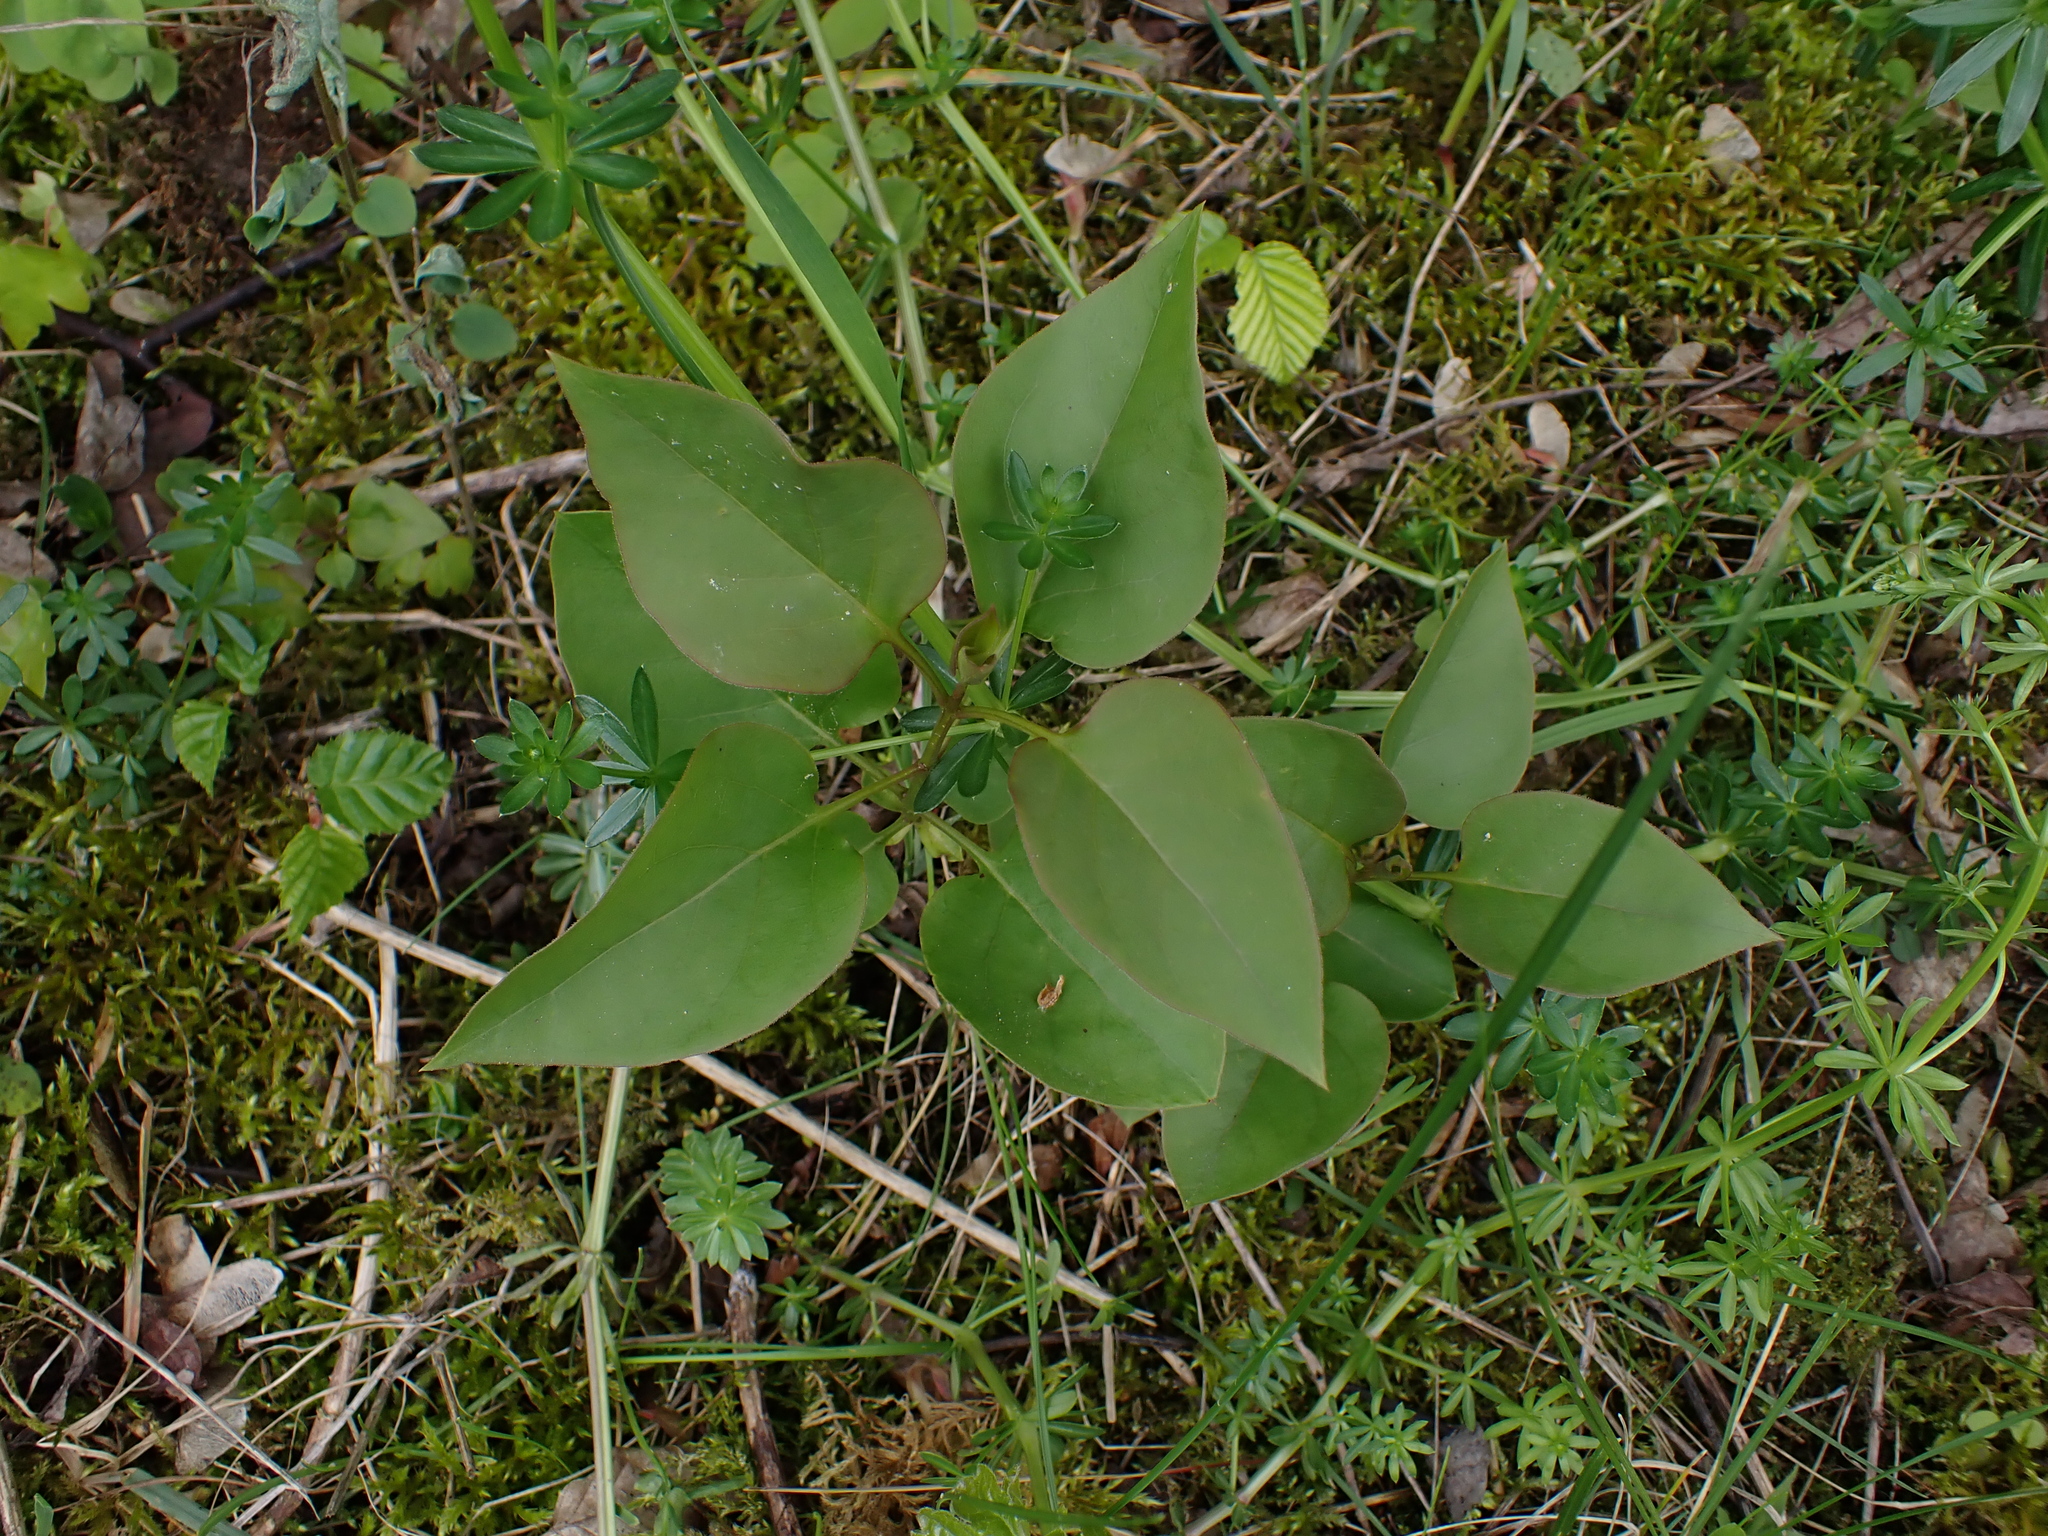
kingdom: Plantae
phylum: Tracheophyta
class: Magnoliopsida
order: Lamiales
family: Oleaceae
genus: Syringa
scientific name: Syringa vulgaris
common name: Common lilac
